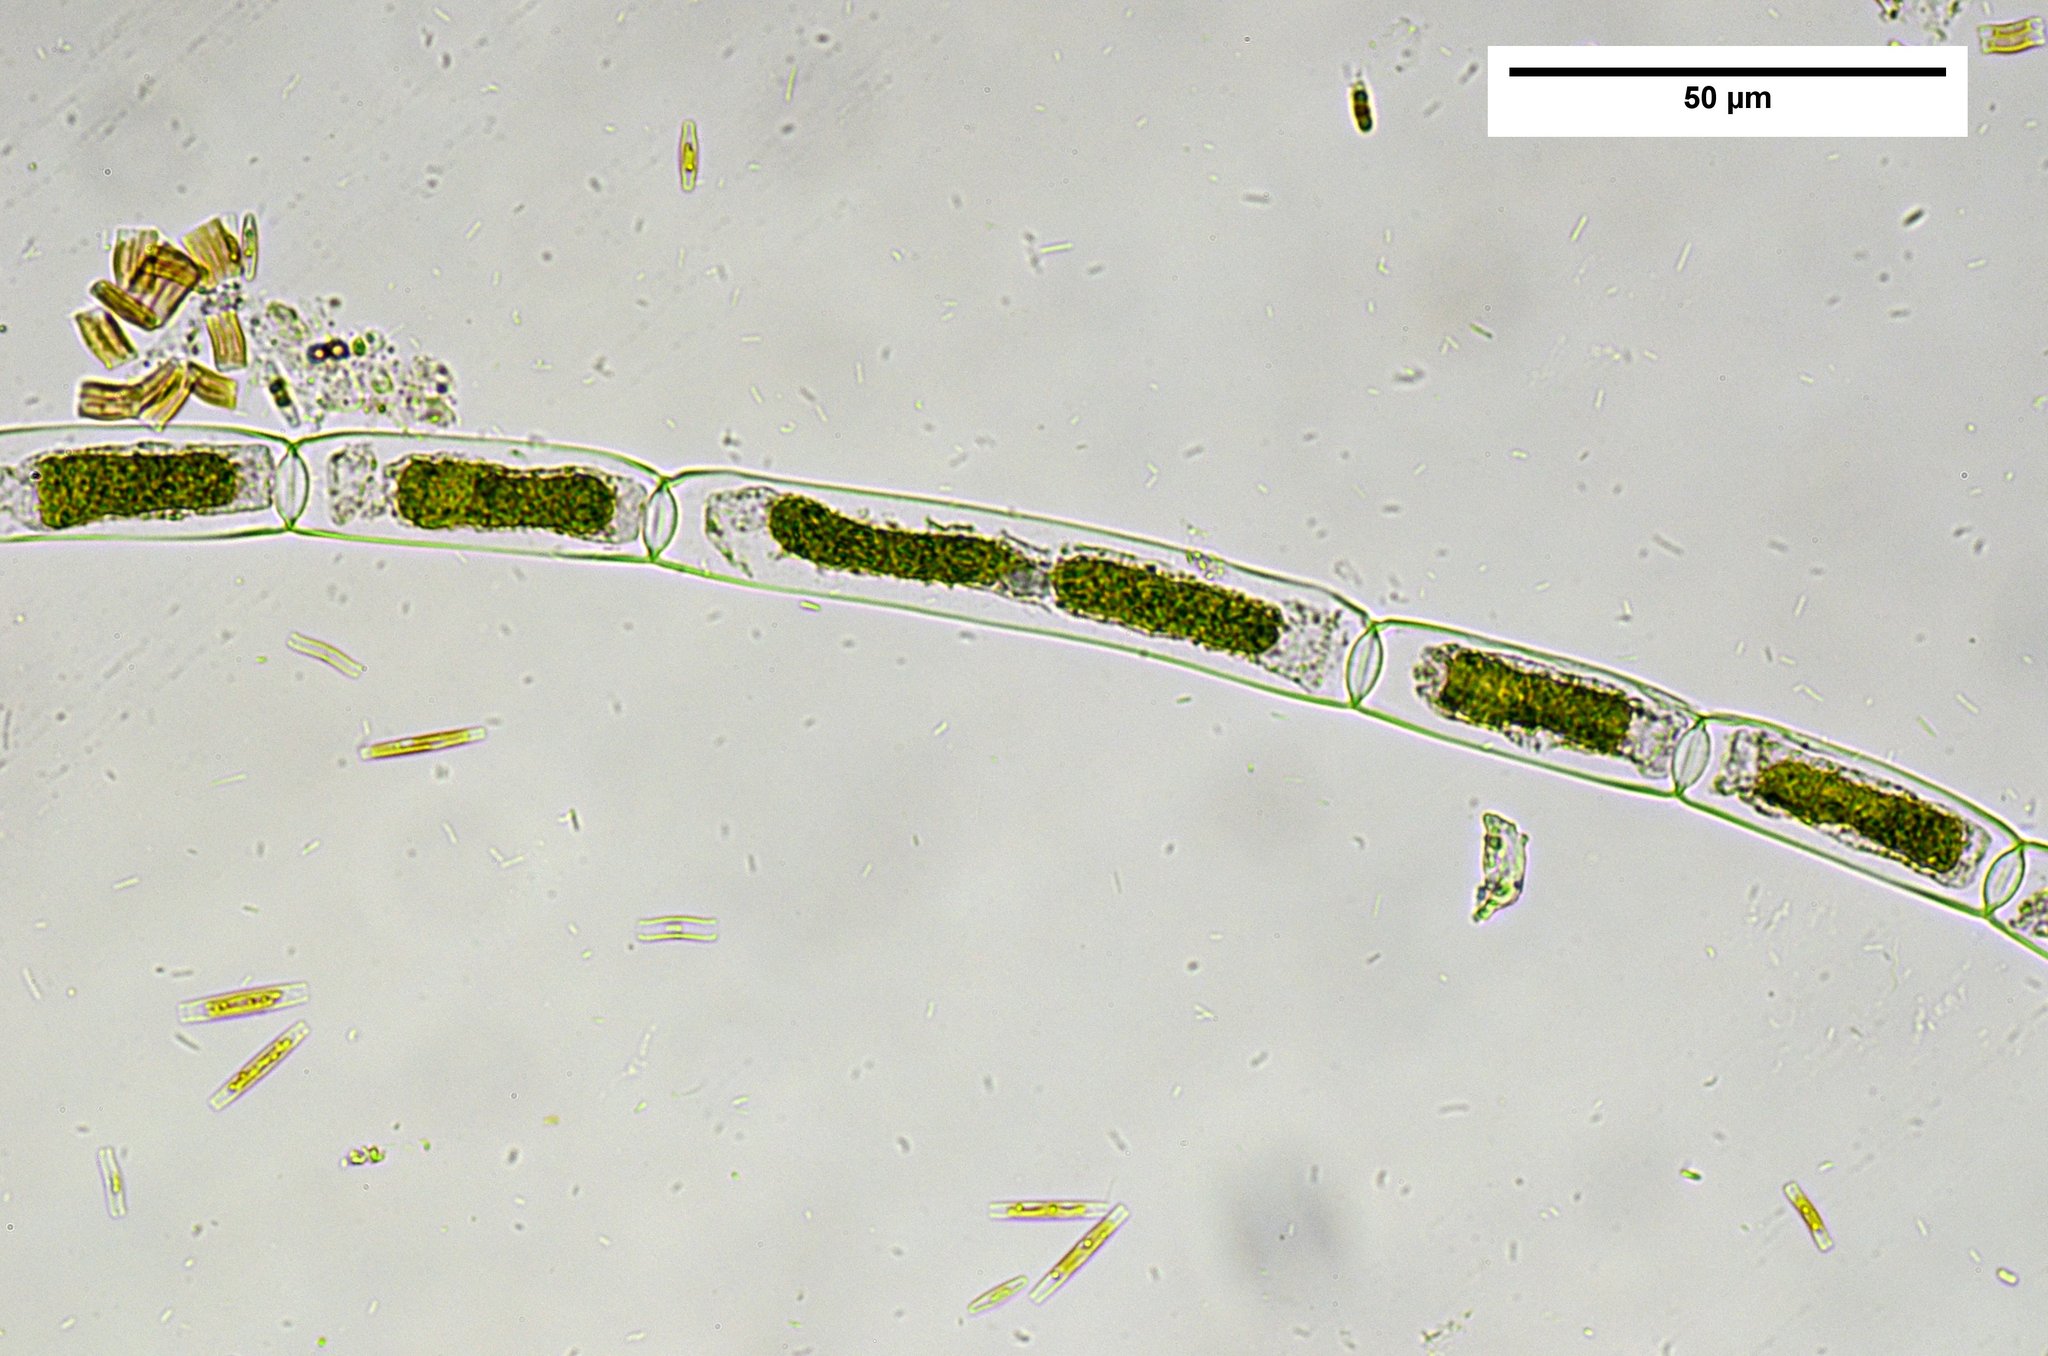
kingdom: Plantae
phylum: Charophyta
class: Zygnematophyceae
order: Zygnematales
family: Zygnemataceae
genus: Mougeotia
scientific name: Mougeotia
